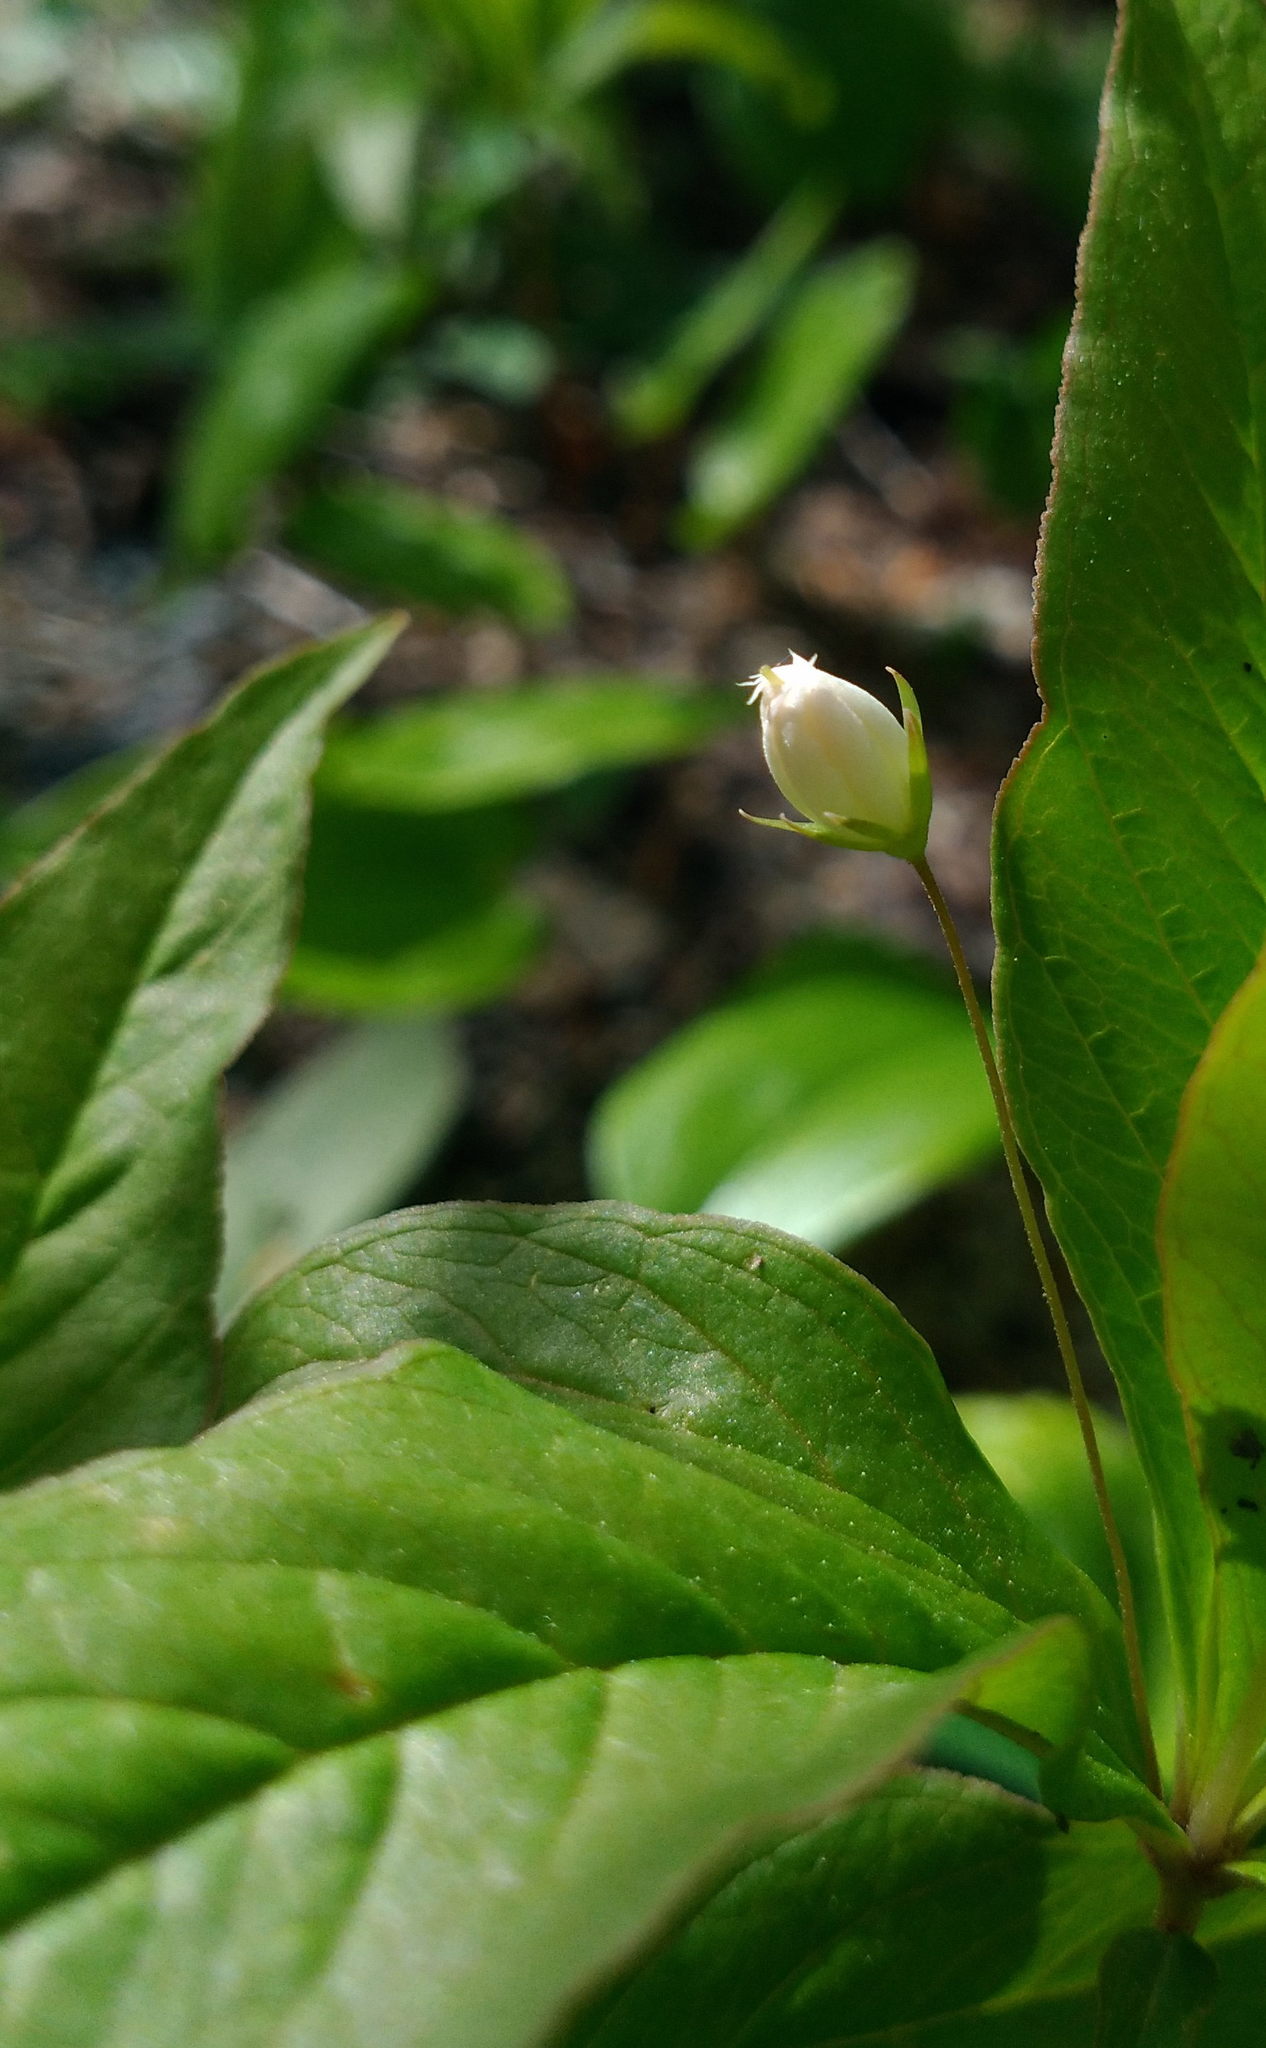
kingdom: Plantae
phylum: Tracheophyta
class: Magnoliopsida
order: Ericales
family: Primulaceae
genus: Lysimachia
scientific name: Lysimachia borealis
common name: American starflower
